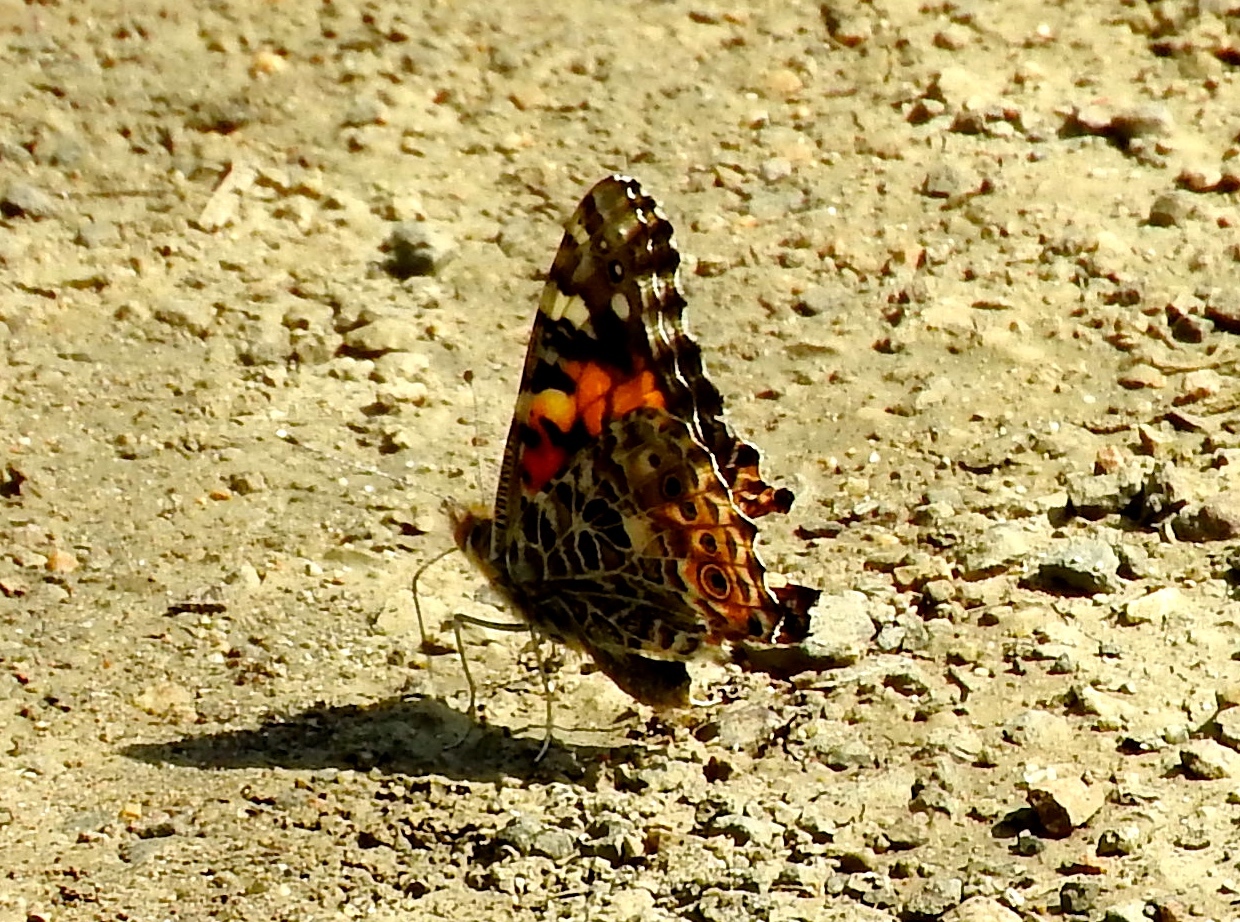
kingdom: Animalia
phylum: Arthropoda
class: Insecta
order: Lepidoptera
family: Nymphalidae
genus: Vanessa
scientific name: Vanessa cardui
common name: Painted lady
